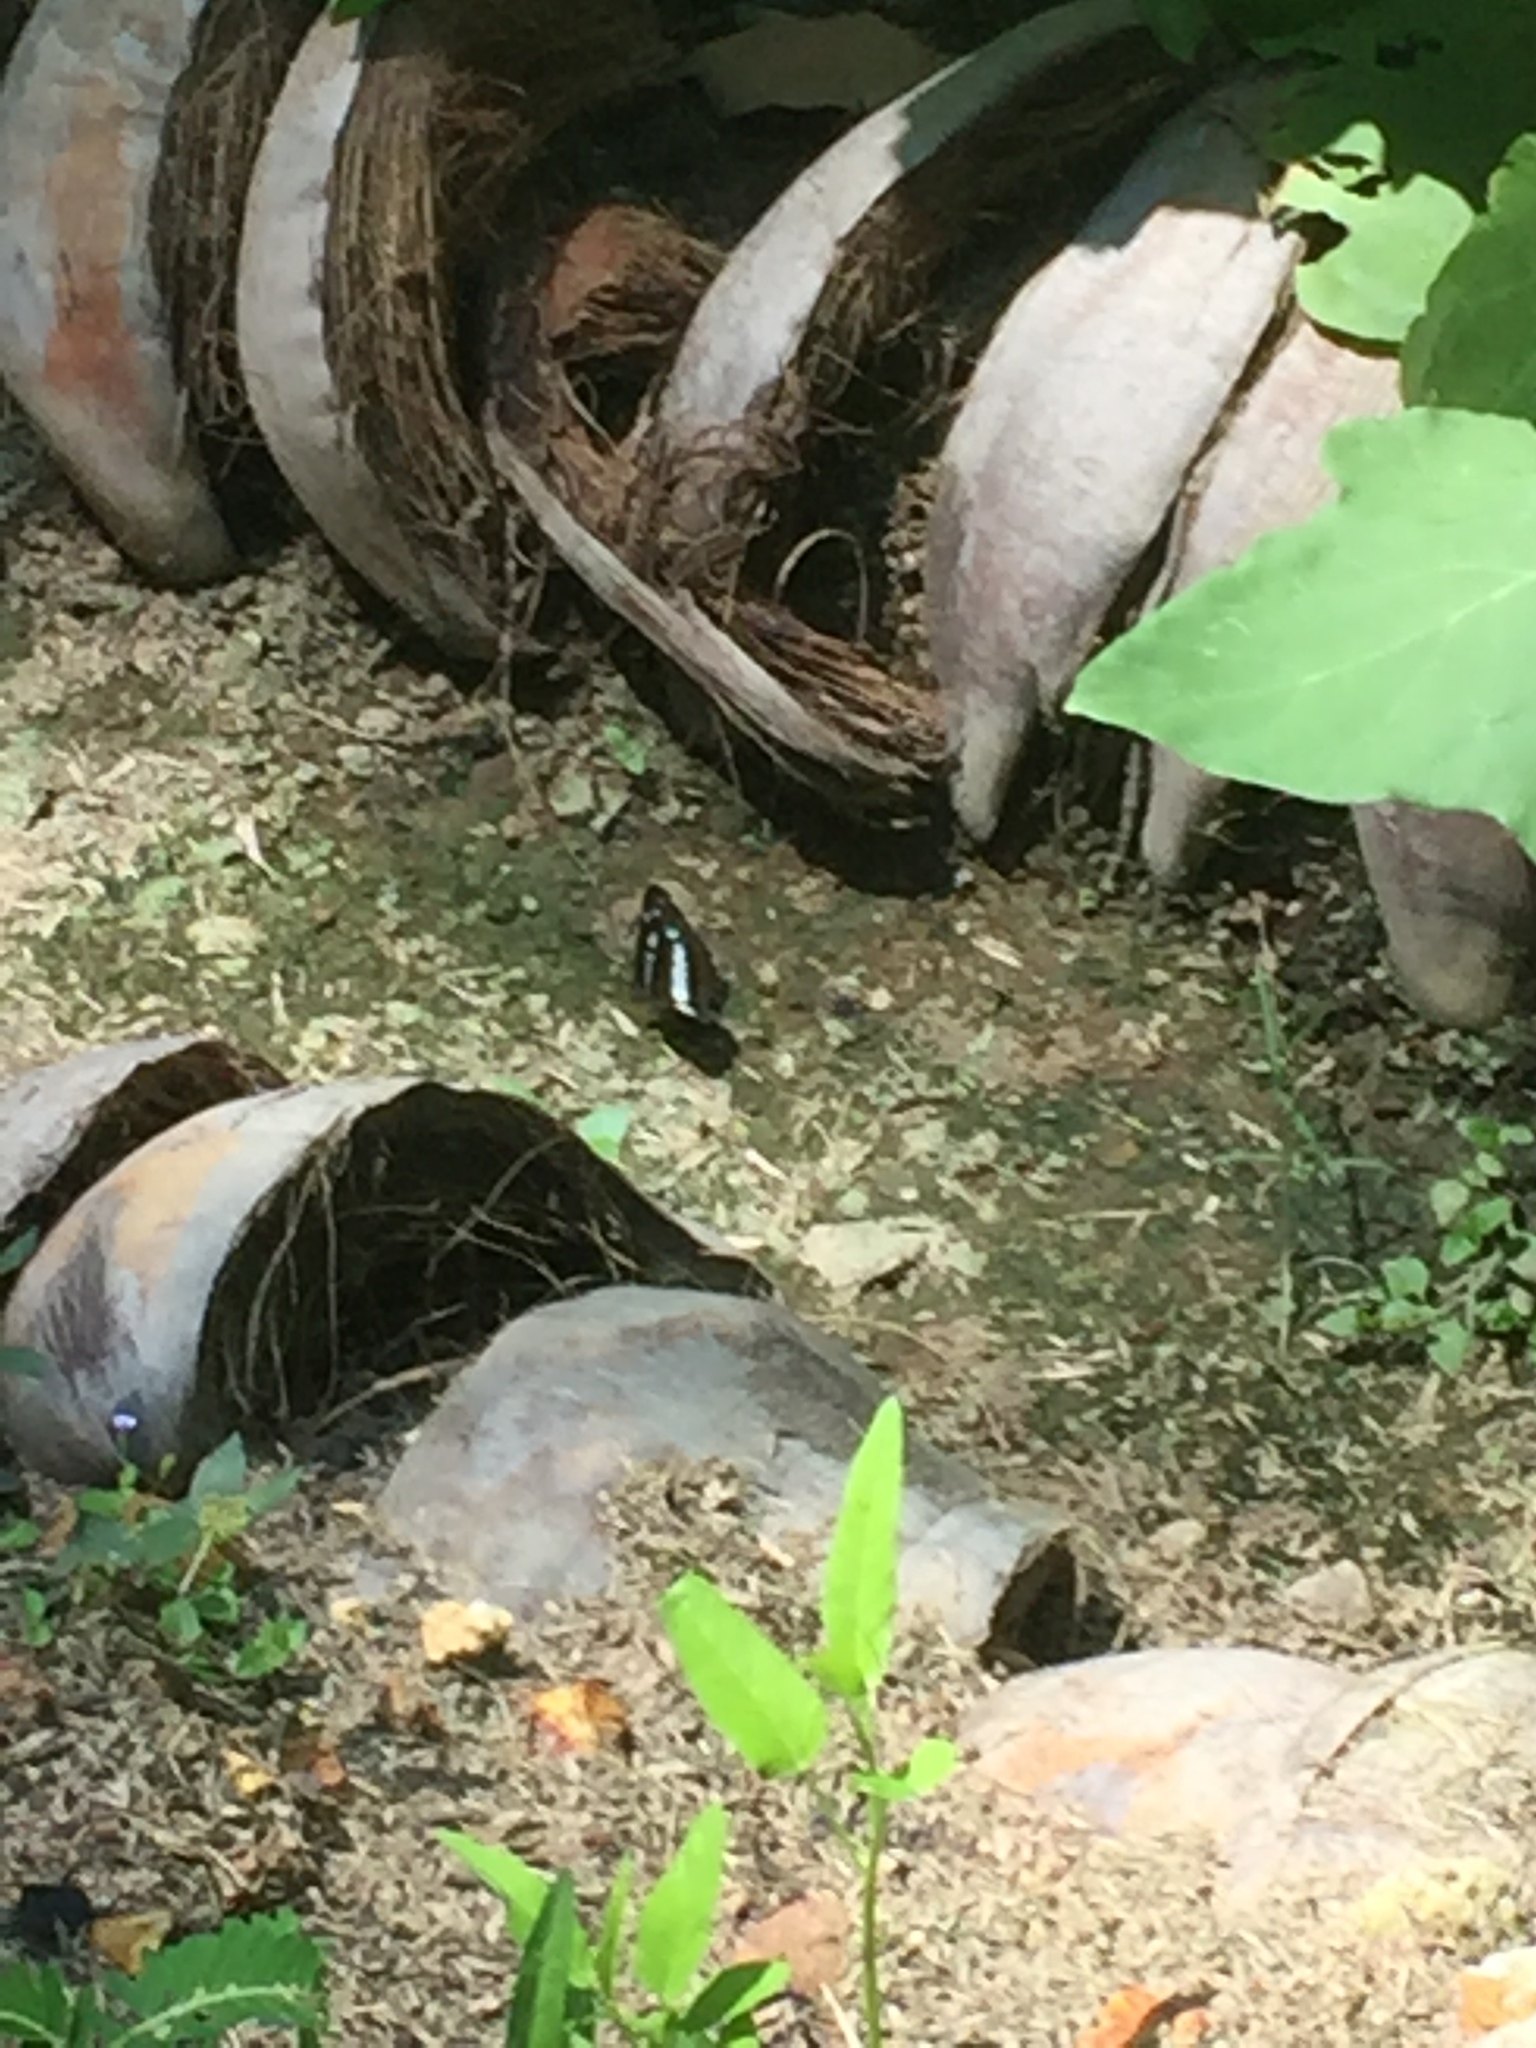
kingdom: Animalia
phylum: Arthropoda
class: Insecta
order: Lepidoptera
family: Nymphalidae
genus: Neptis
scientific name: Neptis jumbah
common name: Chestnut-streaked sailer
